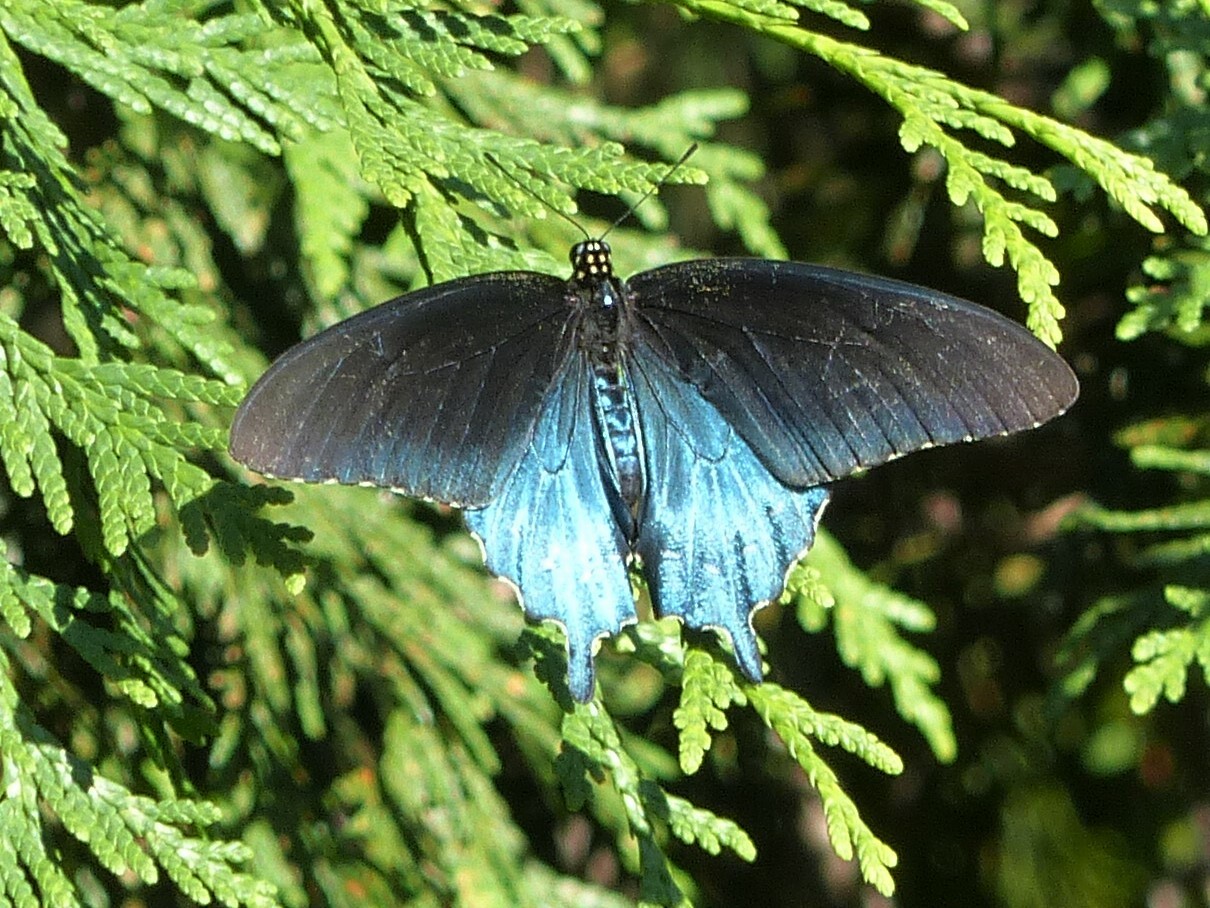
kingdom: Animalia
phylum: Arthropoda
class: Insecta
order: Lepidoptera
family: Papilionidae
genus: Battus
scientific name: Battus philenor
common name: Pipevine swallowtail
